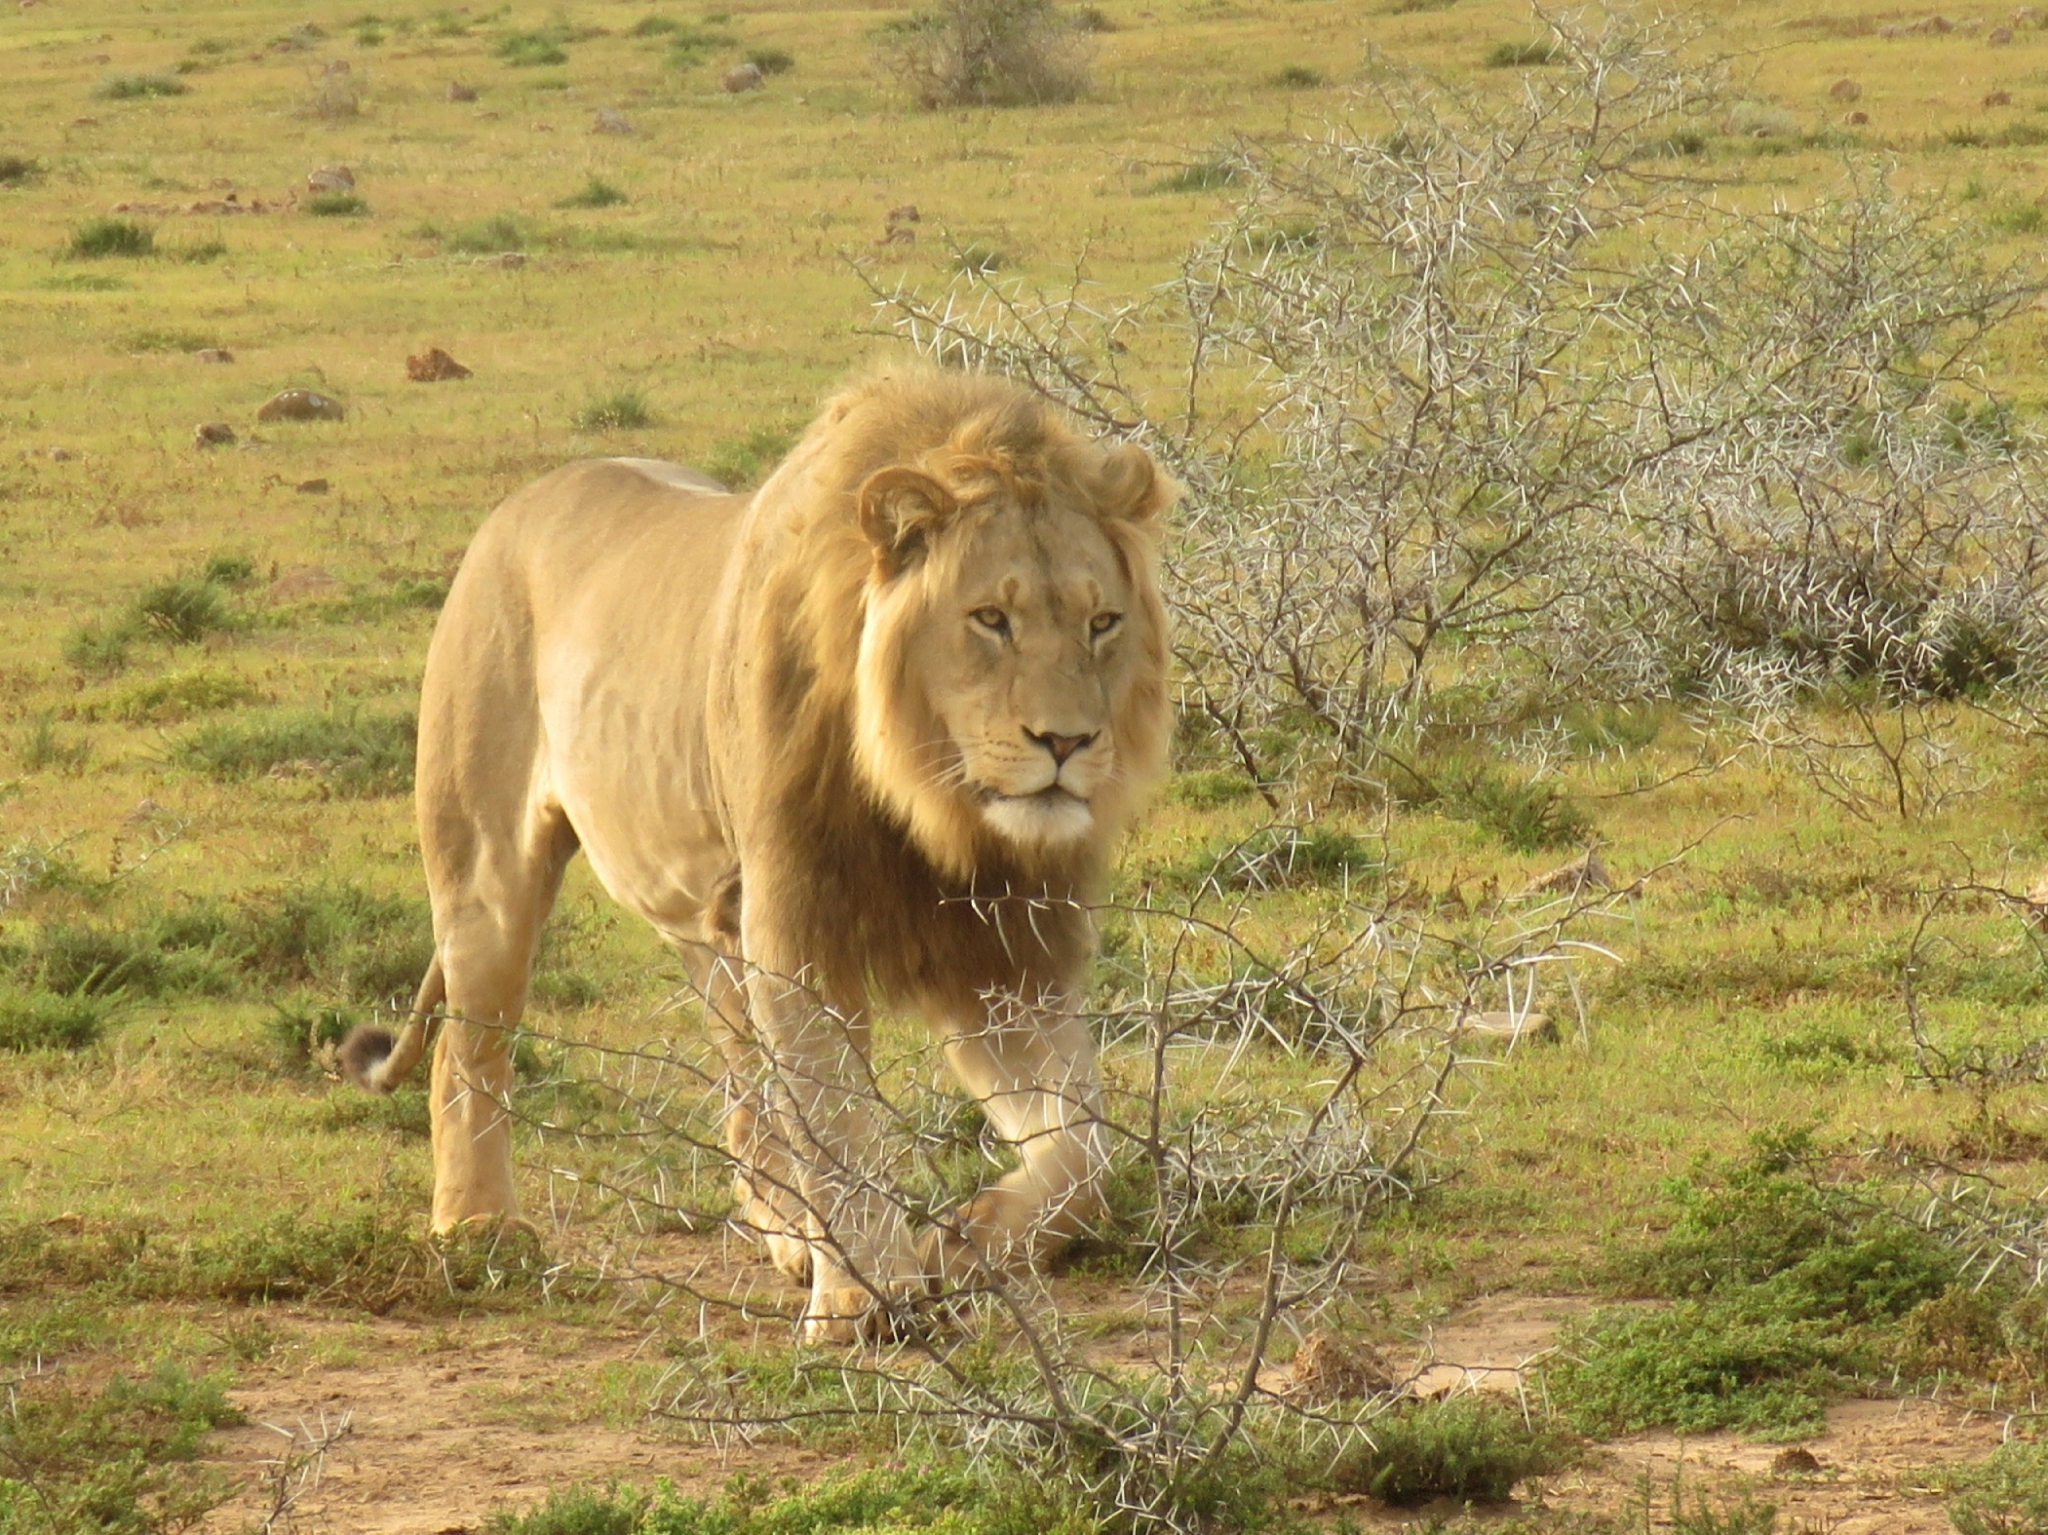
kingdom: Animalia
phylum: Chordata
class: Mammalia
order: Carnivora
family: Felidae
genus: Panthera
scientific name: Panthera leo
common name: Lion
